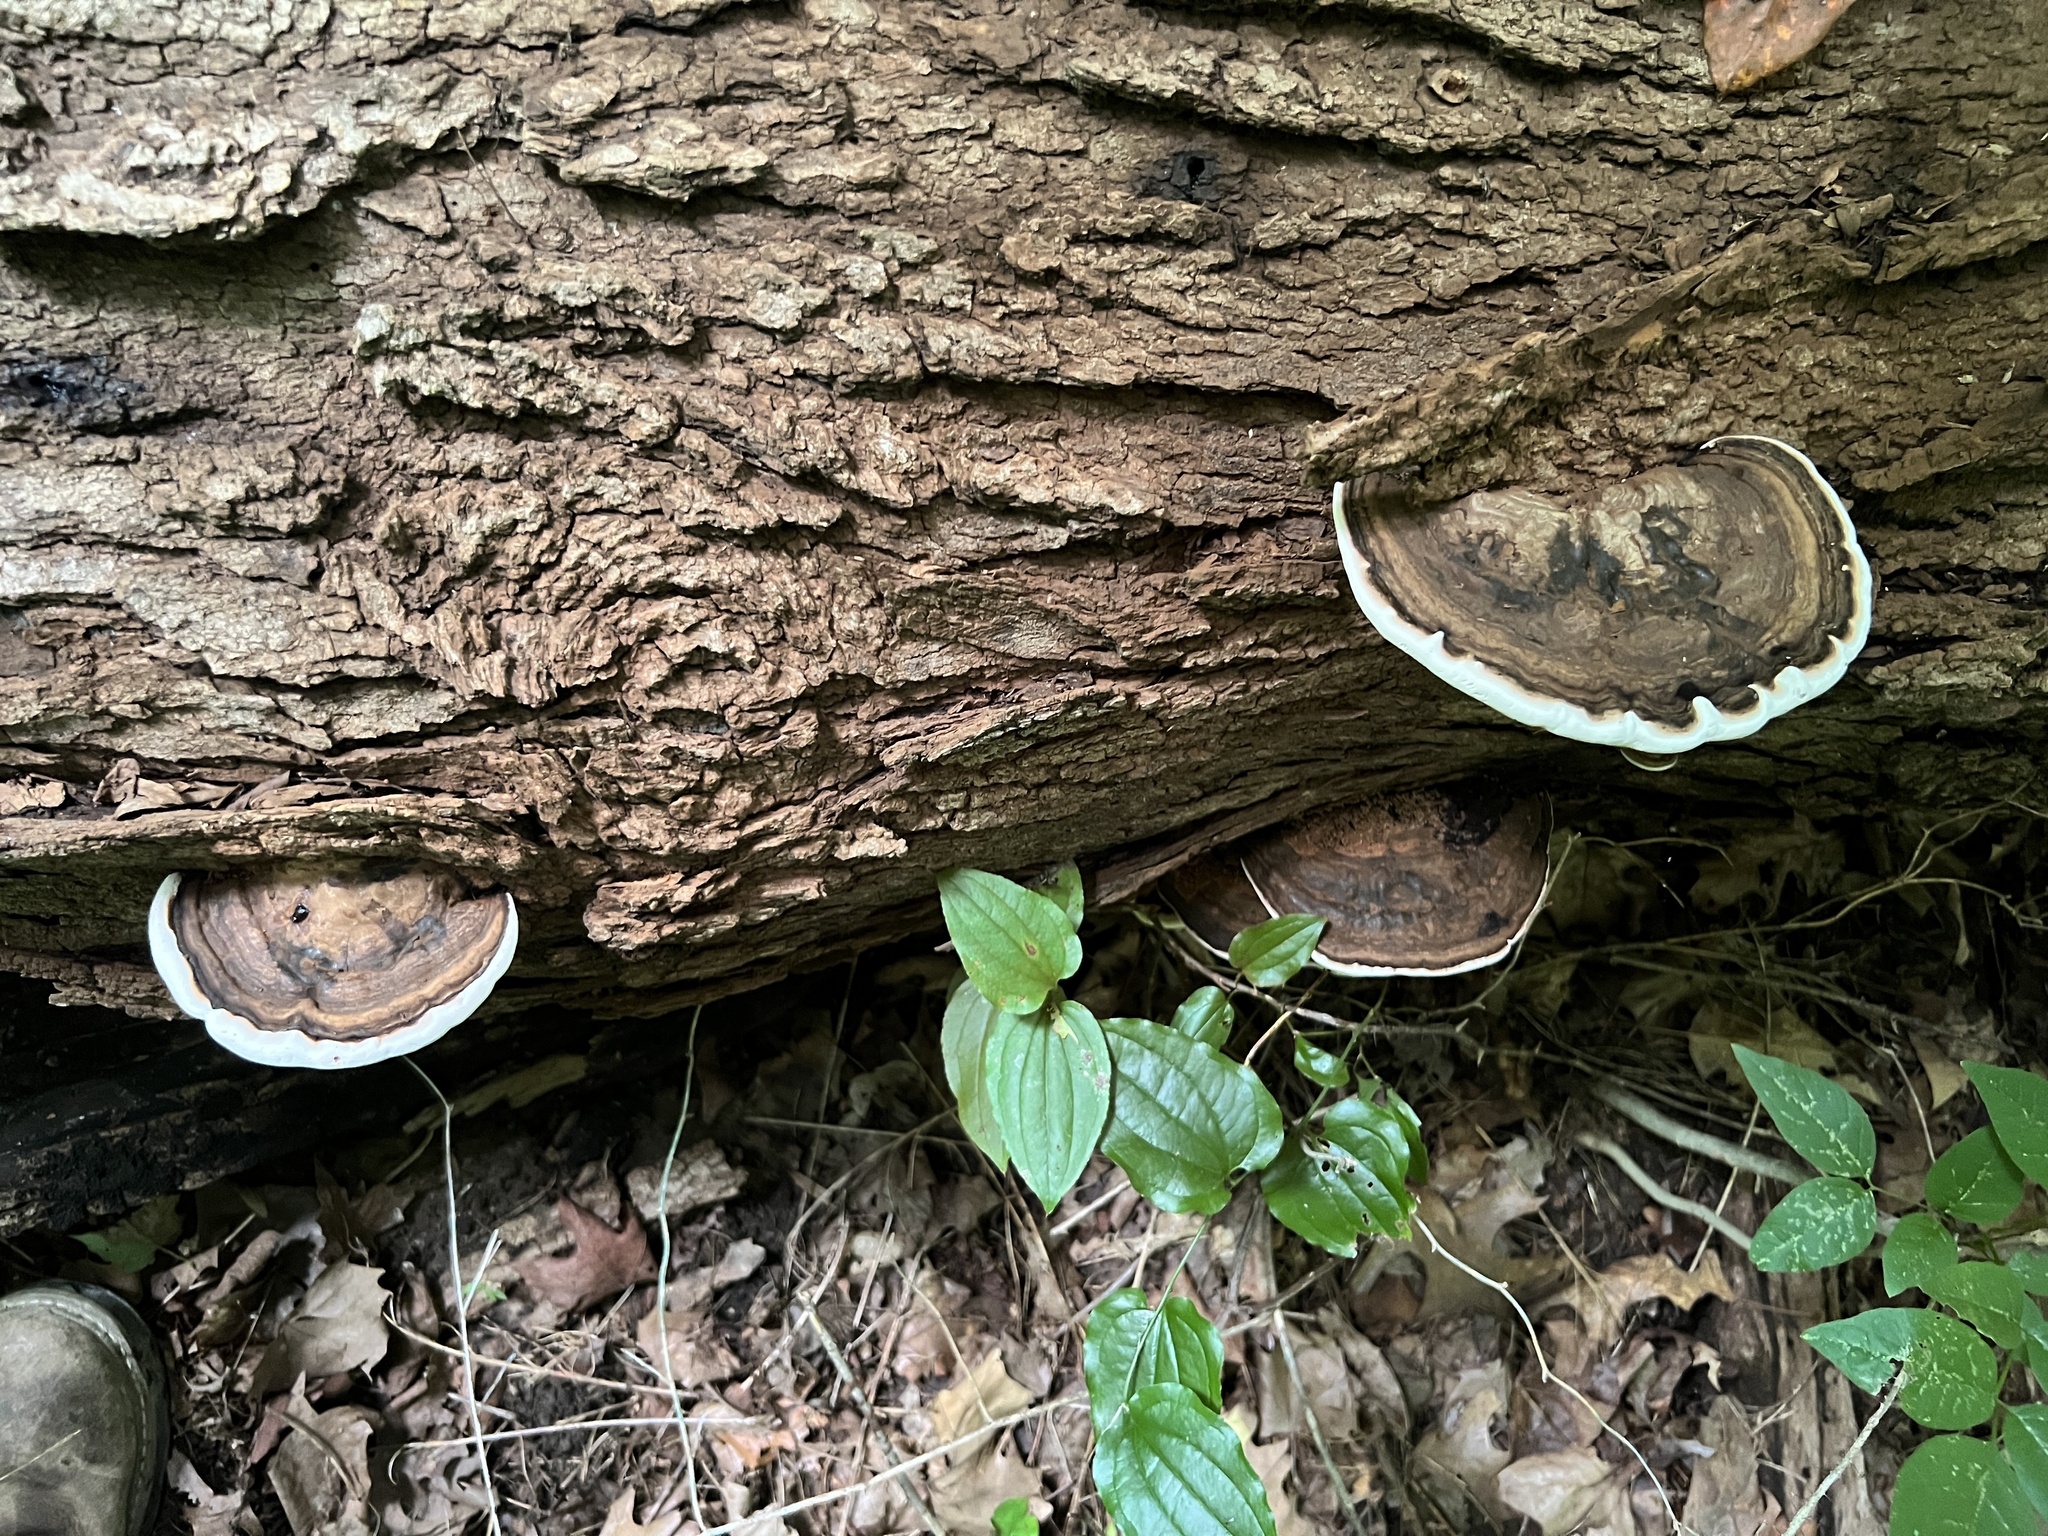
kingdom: Fungi
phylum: Basidiomycota
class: Agaricomycetes
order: Polyporales
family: Polyporaceae
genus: Ganoderma
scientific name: Ganoderma lobatum
